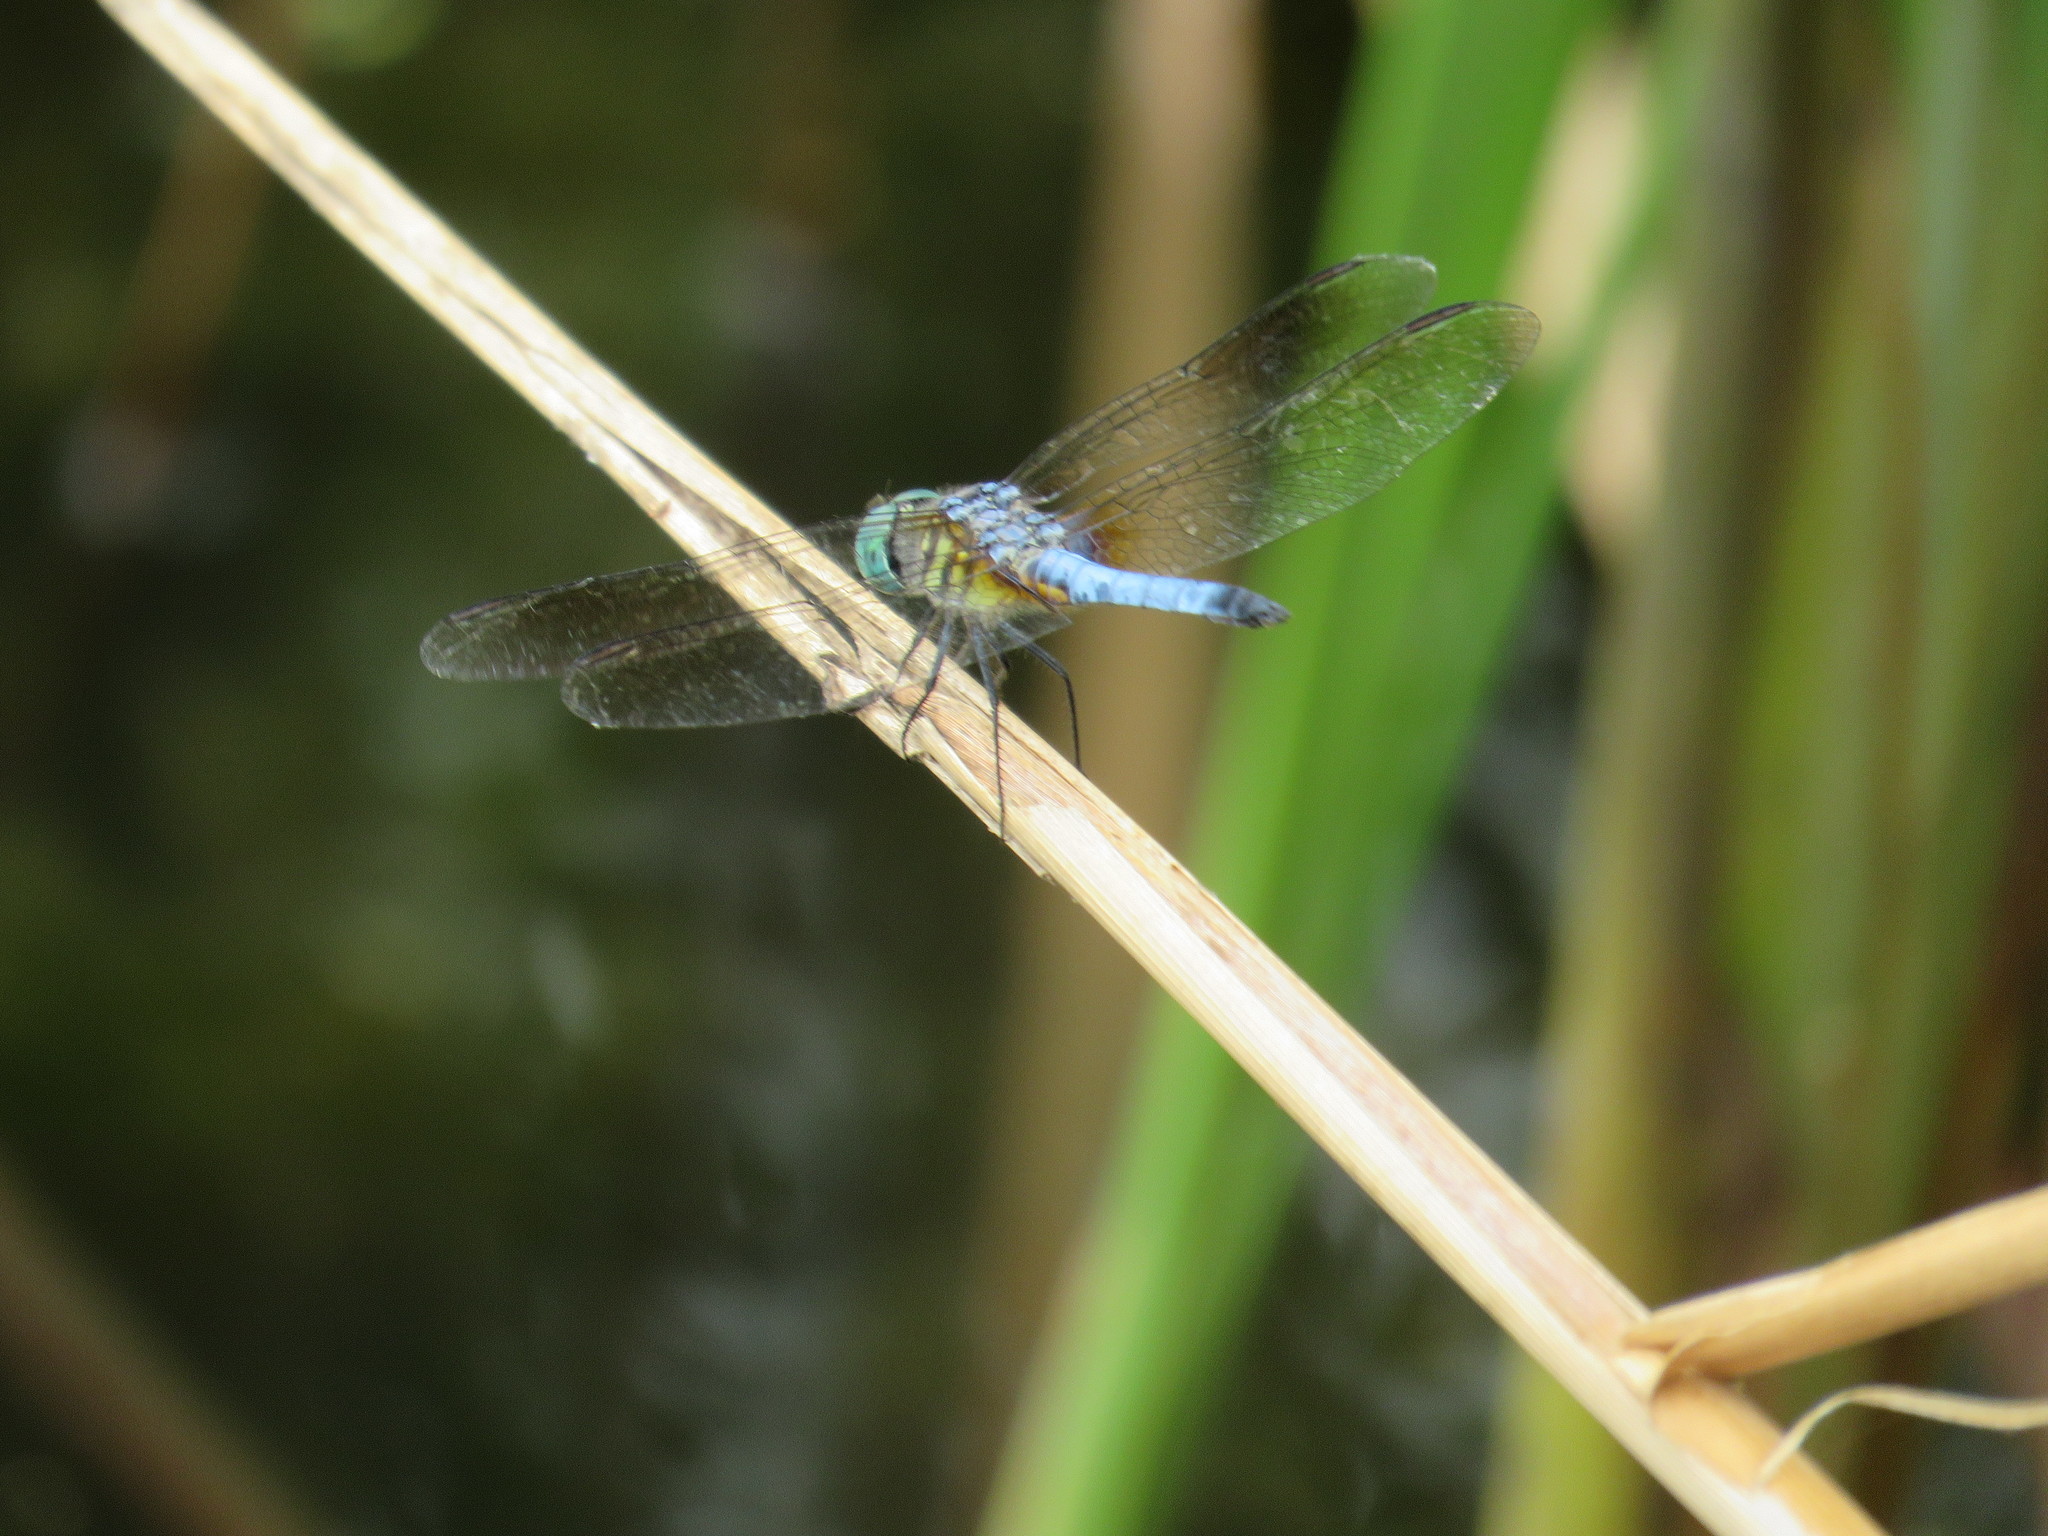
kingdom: Animalia
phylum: Arthropoda
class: Insecta
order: Odonata
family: Libellulidae
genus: Pachydiplax
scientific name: Pachydiplax longipennis
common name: Blue dasher
